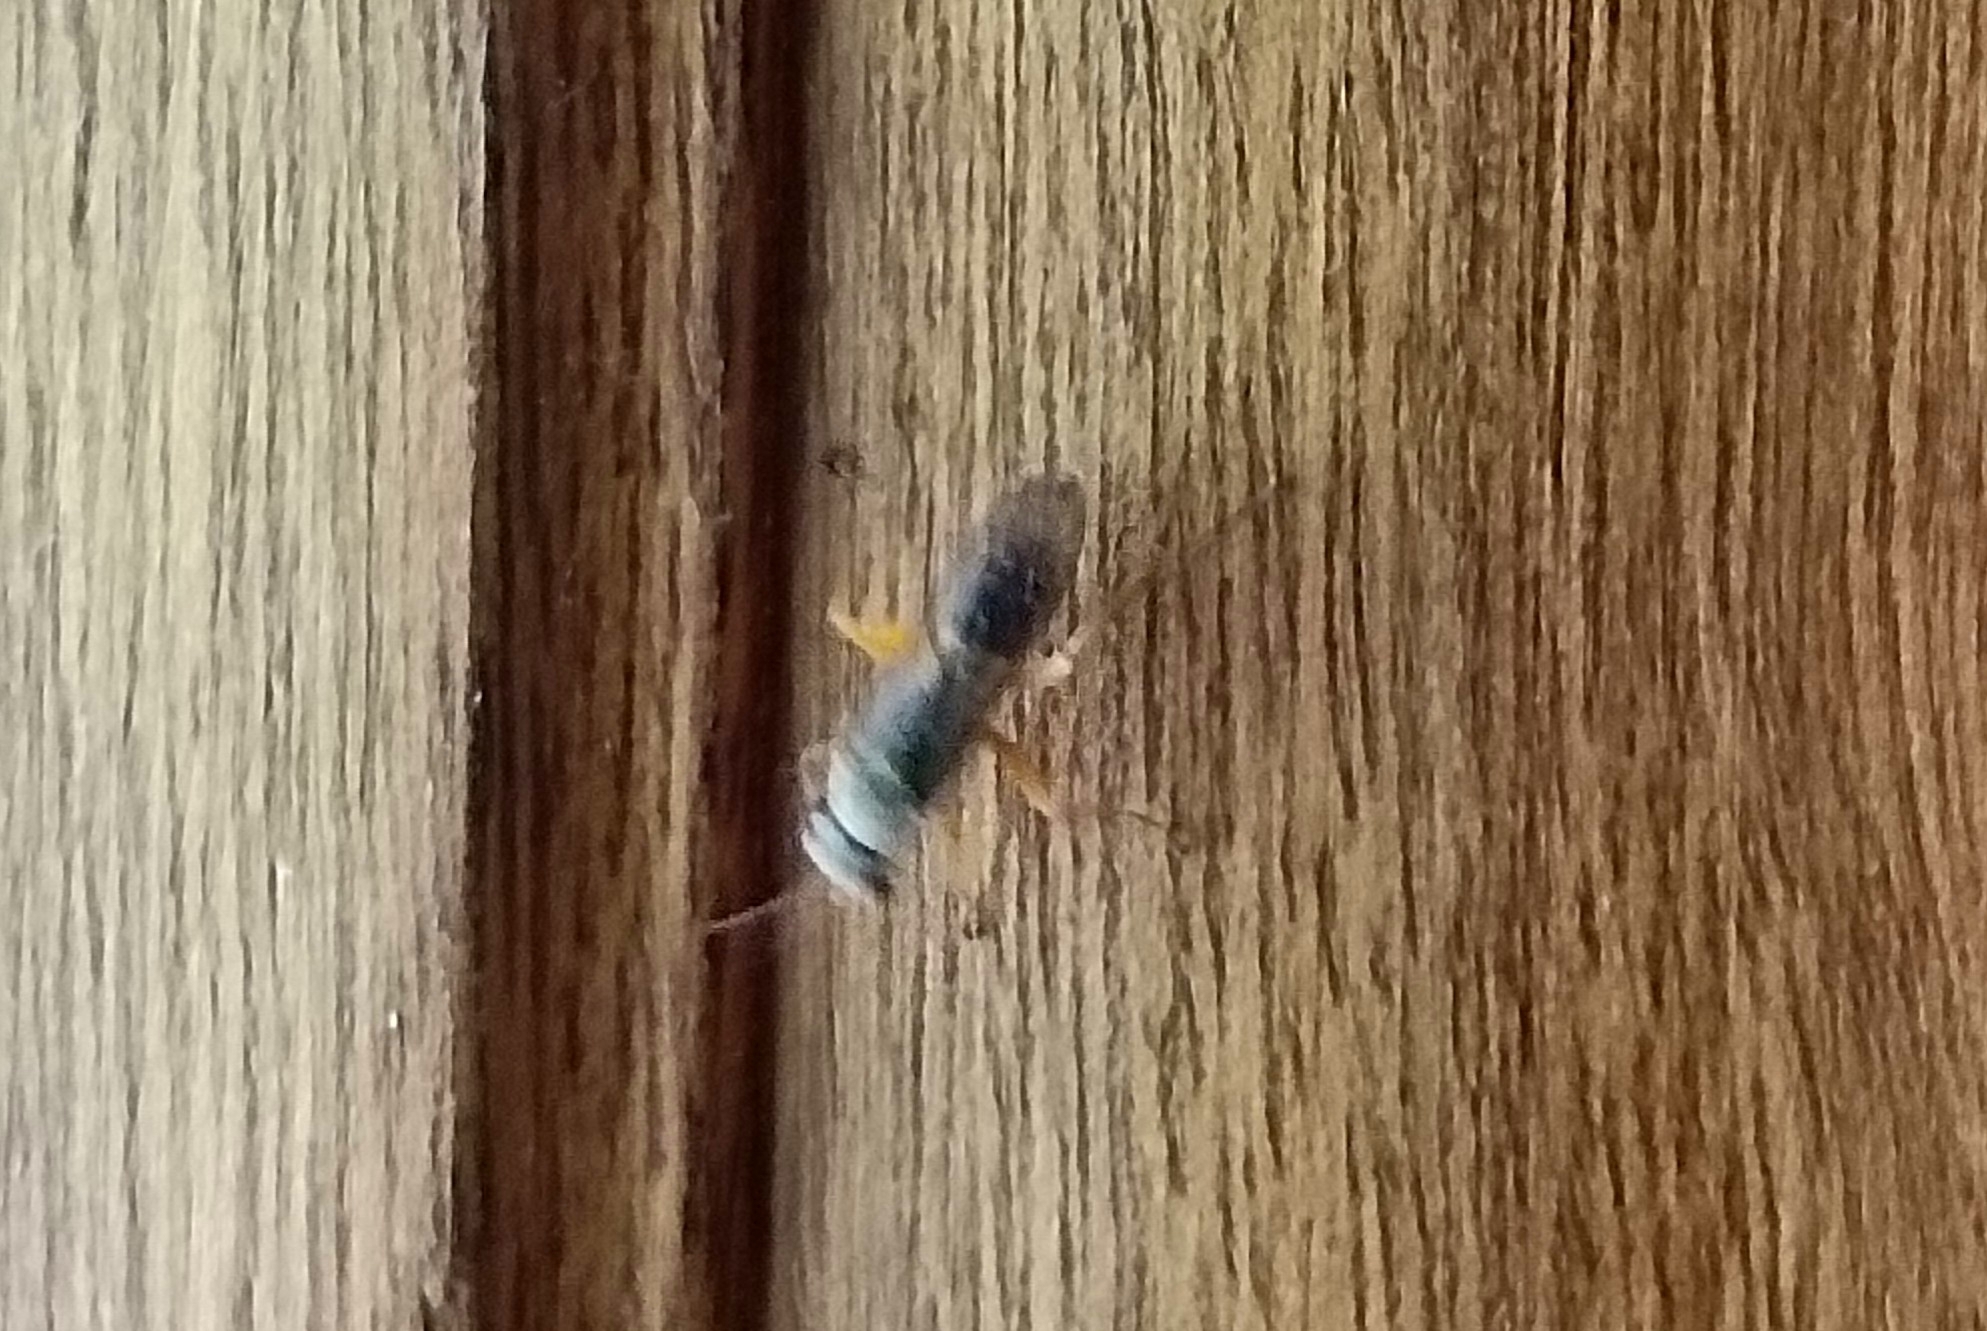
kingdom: Animalia
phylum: Arthropoda
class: Insecta
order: Hymenoptera
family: Pompilidae
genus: Machaerothrix
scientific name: Machaerothrix salticidus
